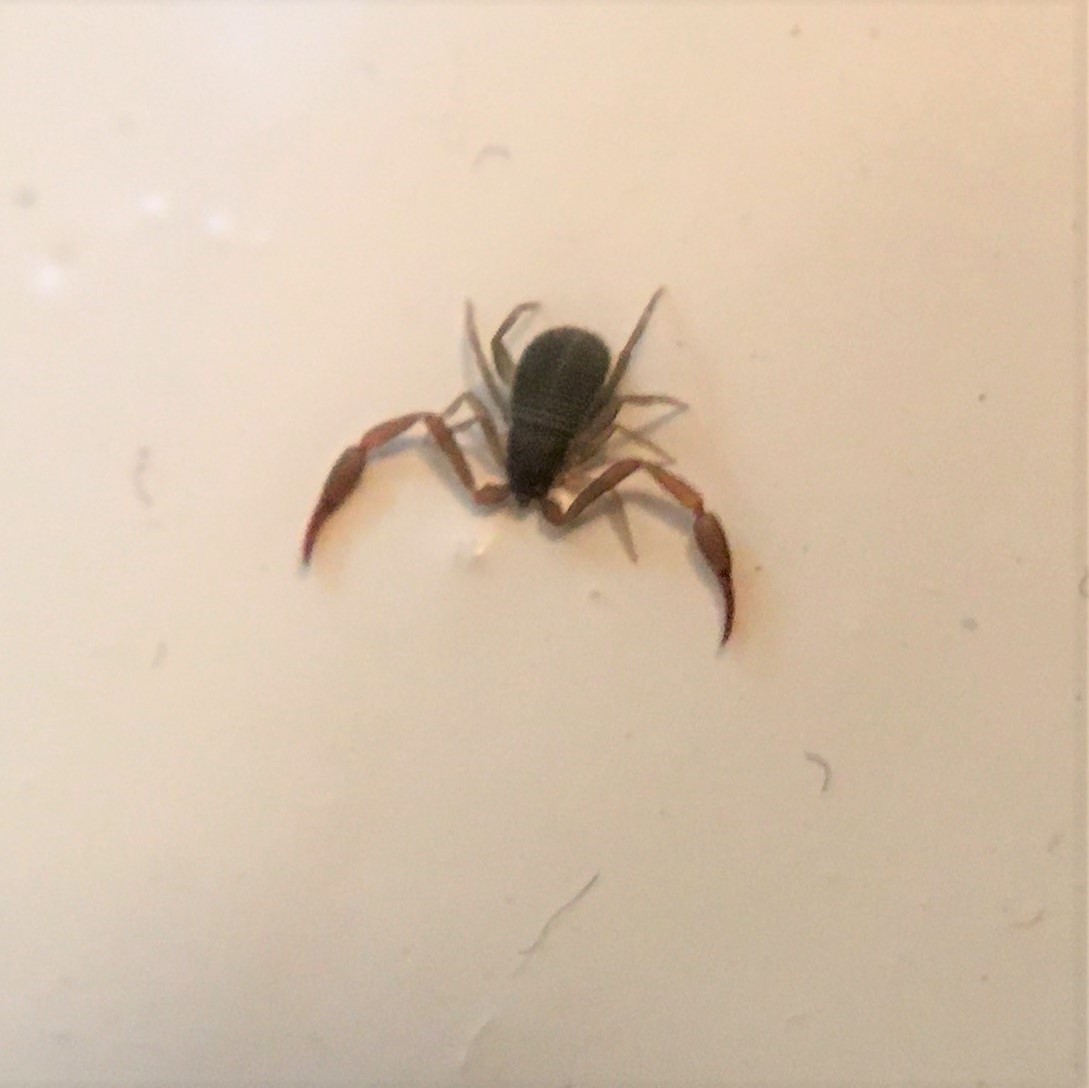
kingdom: Animalia
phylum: Arthropoda
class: Arachnida
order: Pseudoscorpiones
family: Cheliferidae
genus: Chelifer
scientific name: Chelifer cancroides
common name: House false-scorpion
